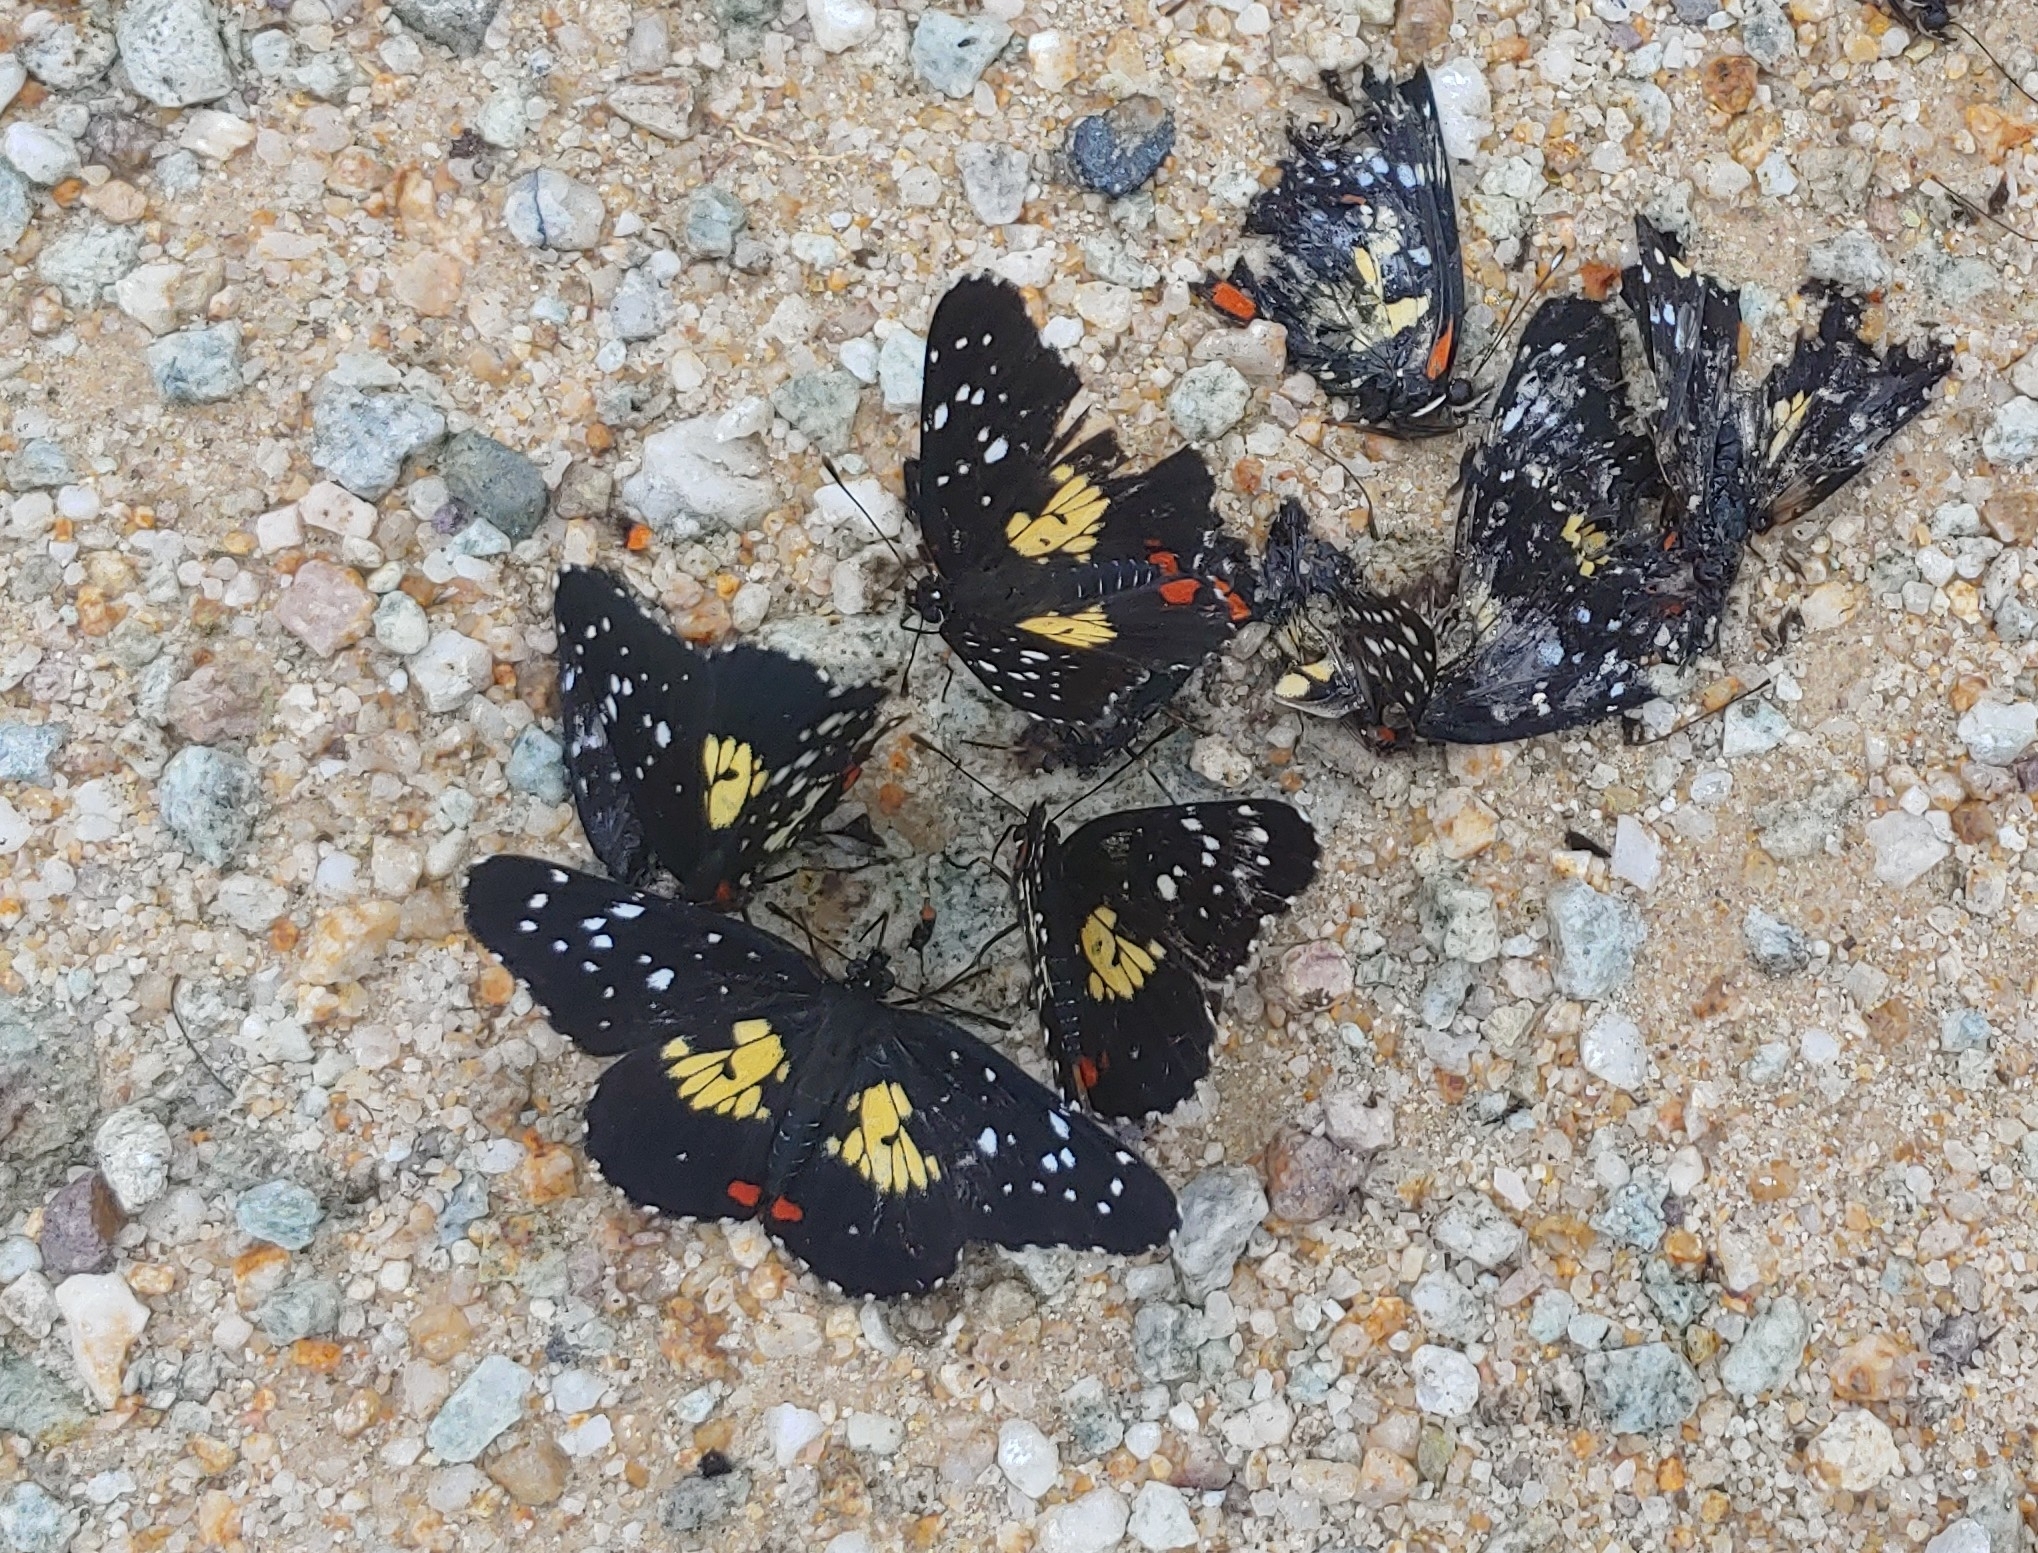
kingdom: Animalia
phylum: Arthropoda
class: Insecta
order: Lepidoptera
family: Nymphalidae
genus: Chlosyne
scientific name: Chlosyne erodyle
